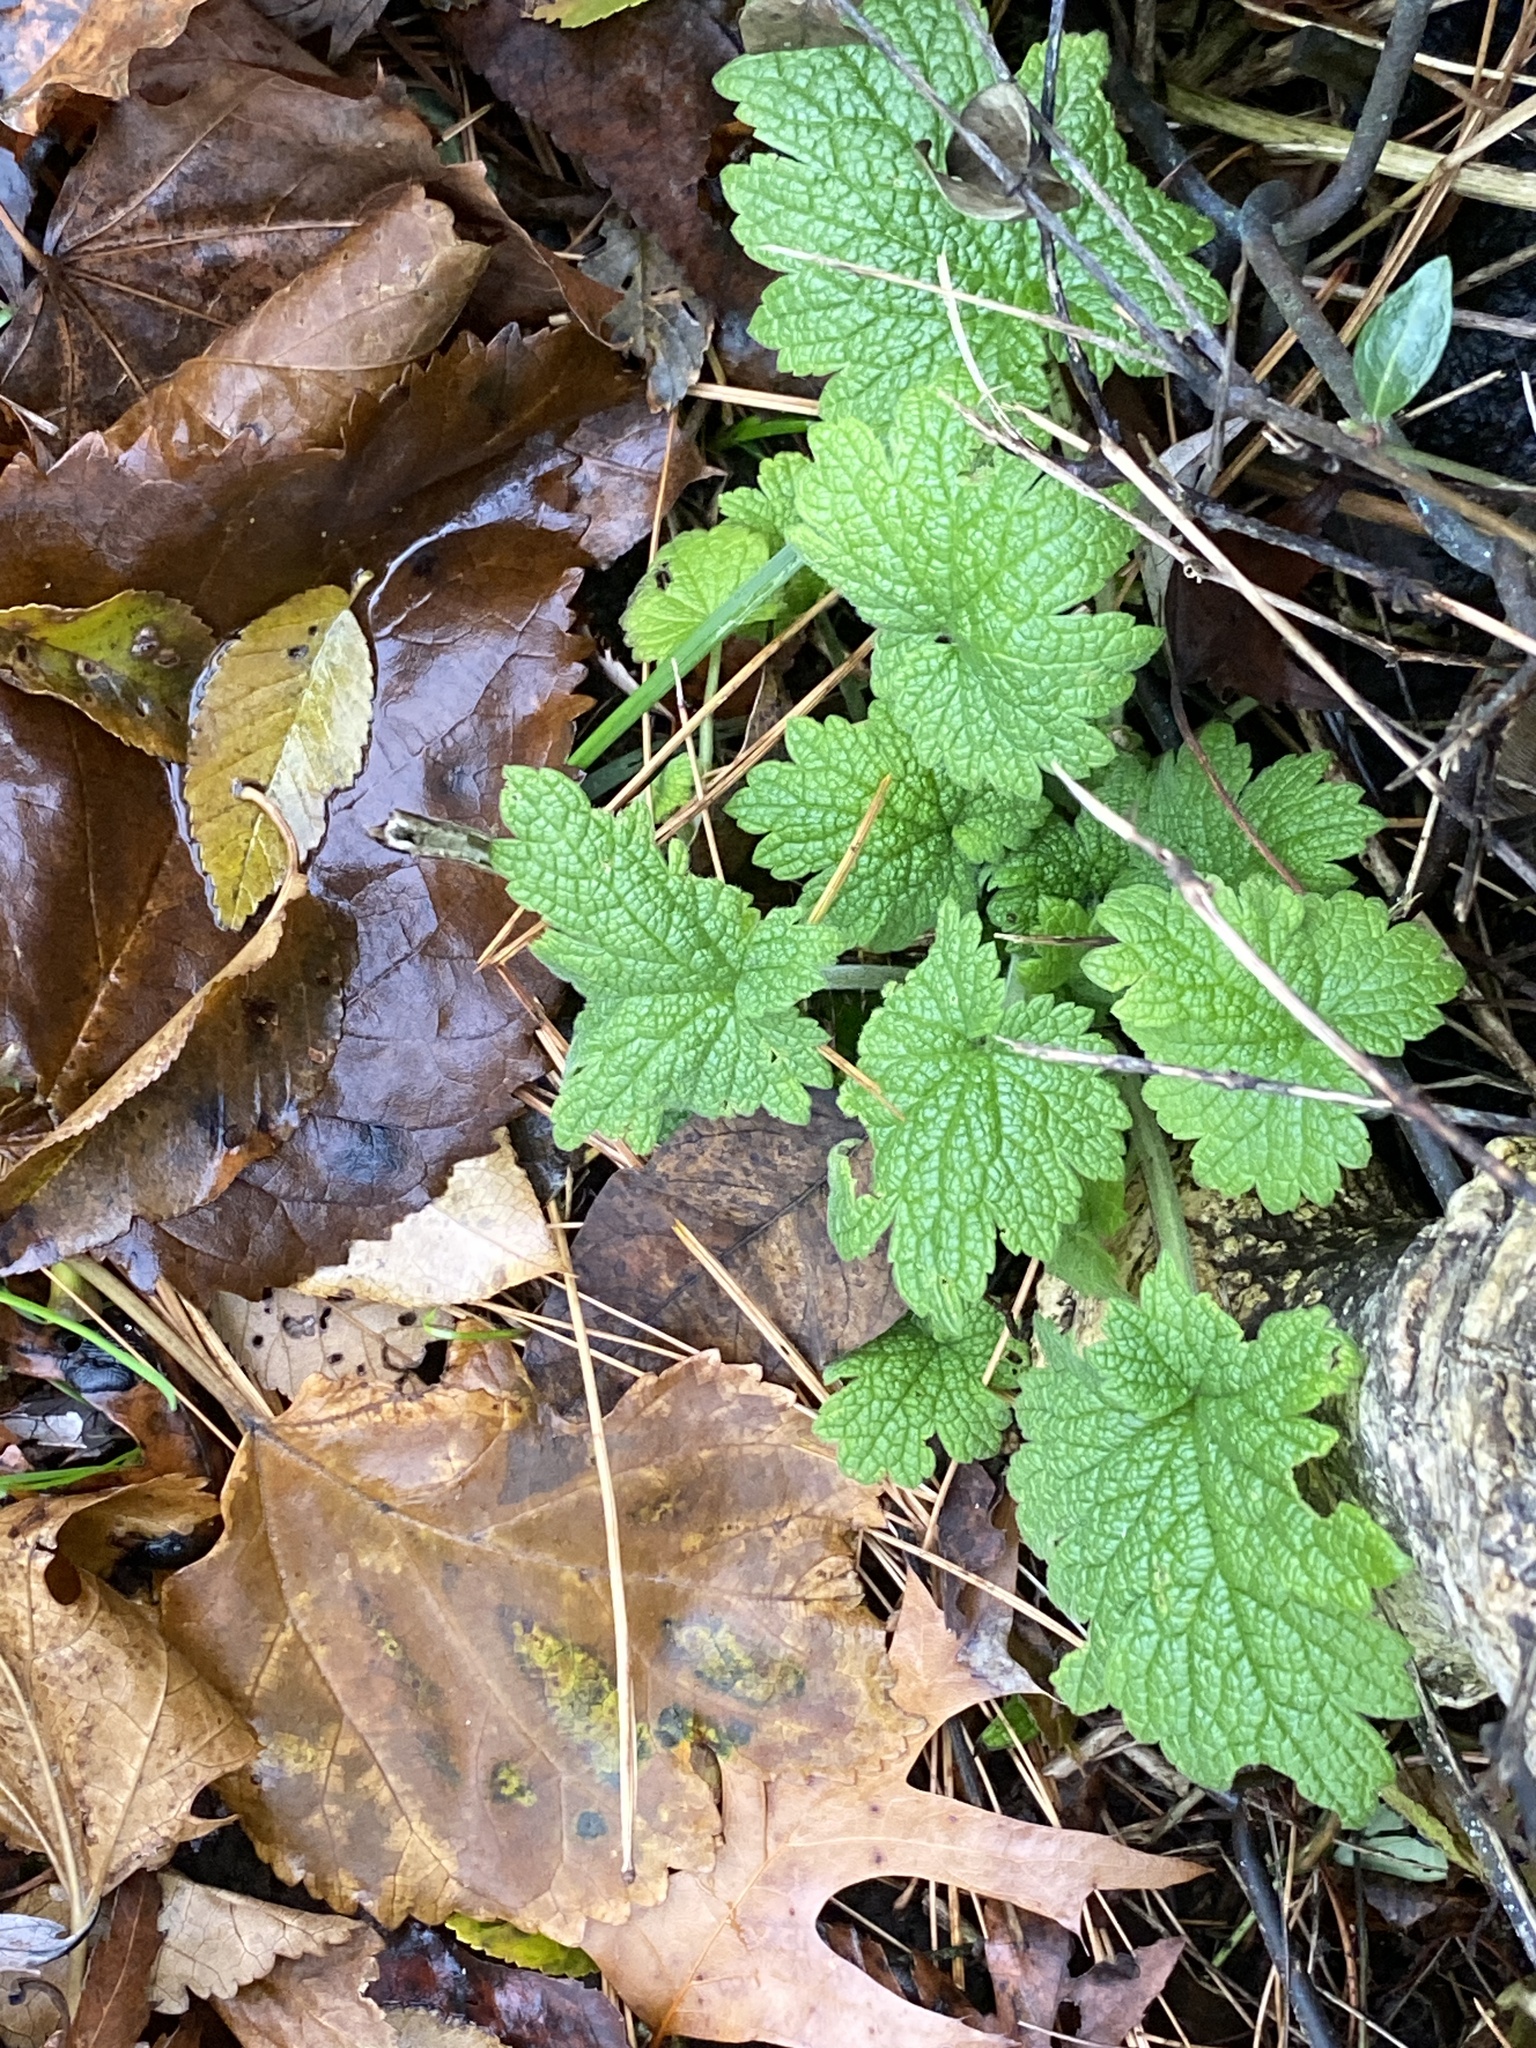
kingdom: Plantae
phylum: Tracheophyta
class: Magnoliopsida
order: Lamiales
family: Lamiaceae
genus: Leonurus
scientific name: Leonurus cardiaca
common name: Motherwort
